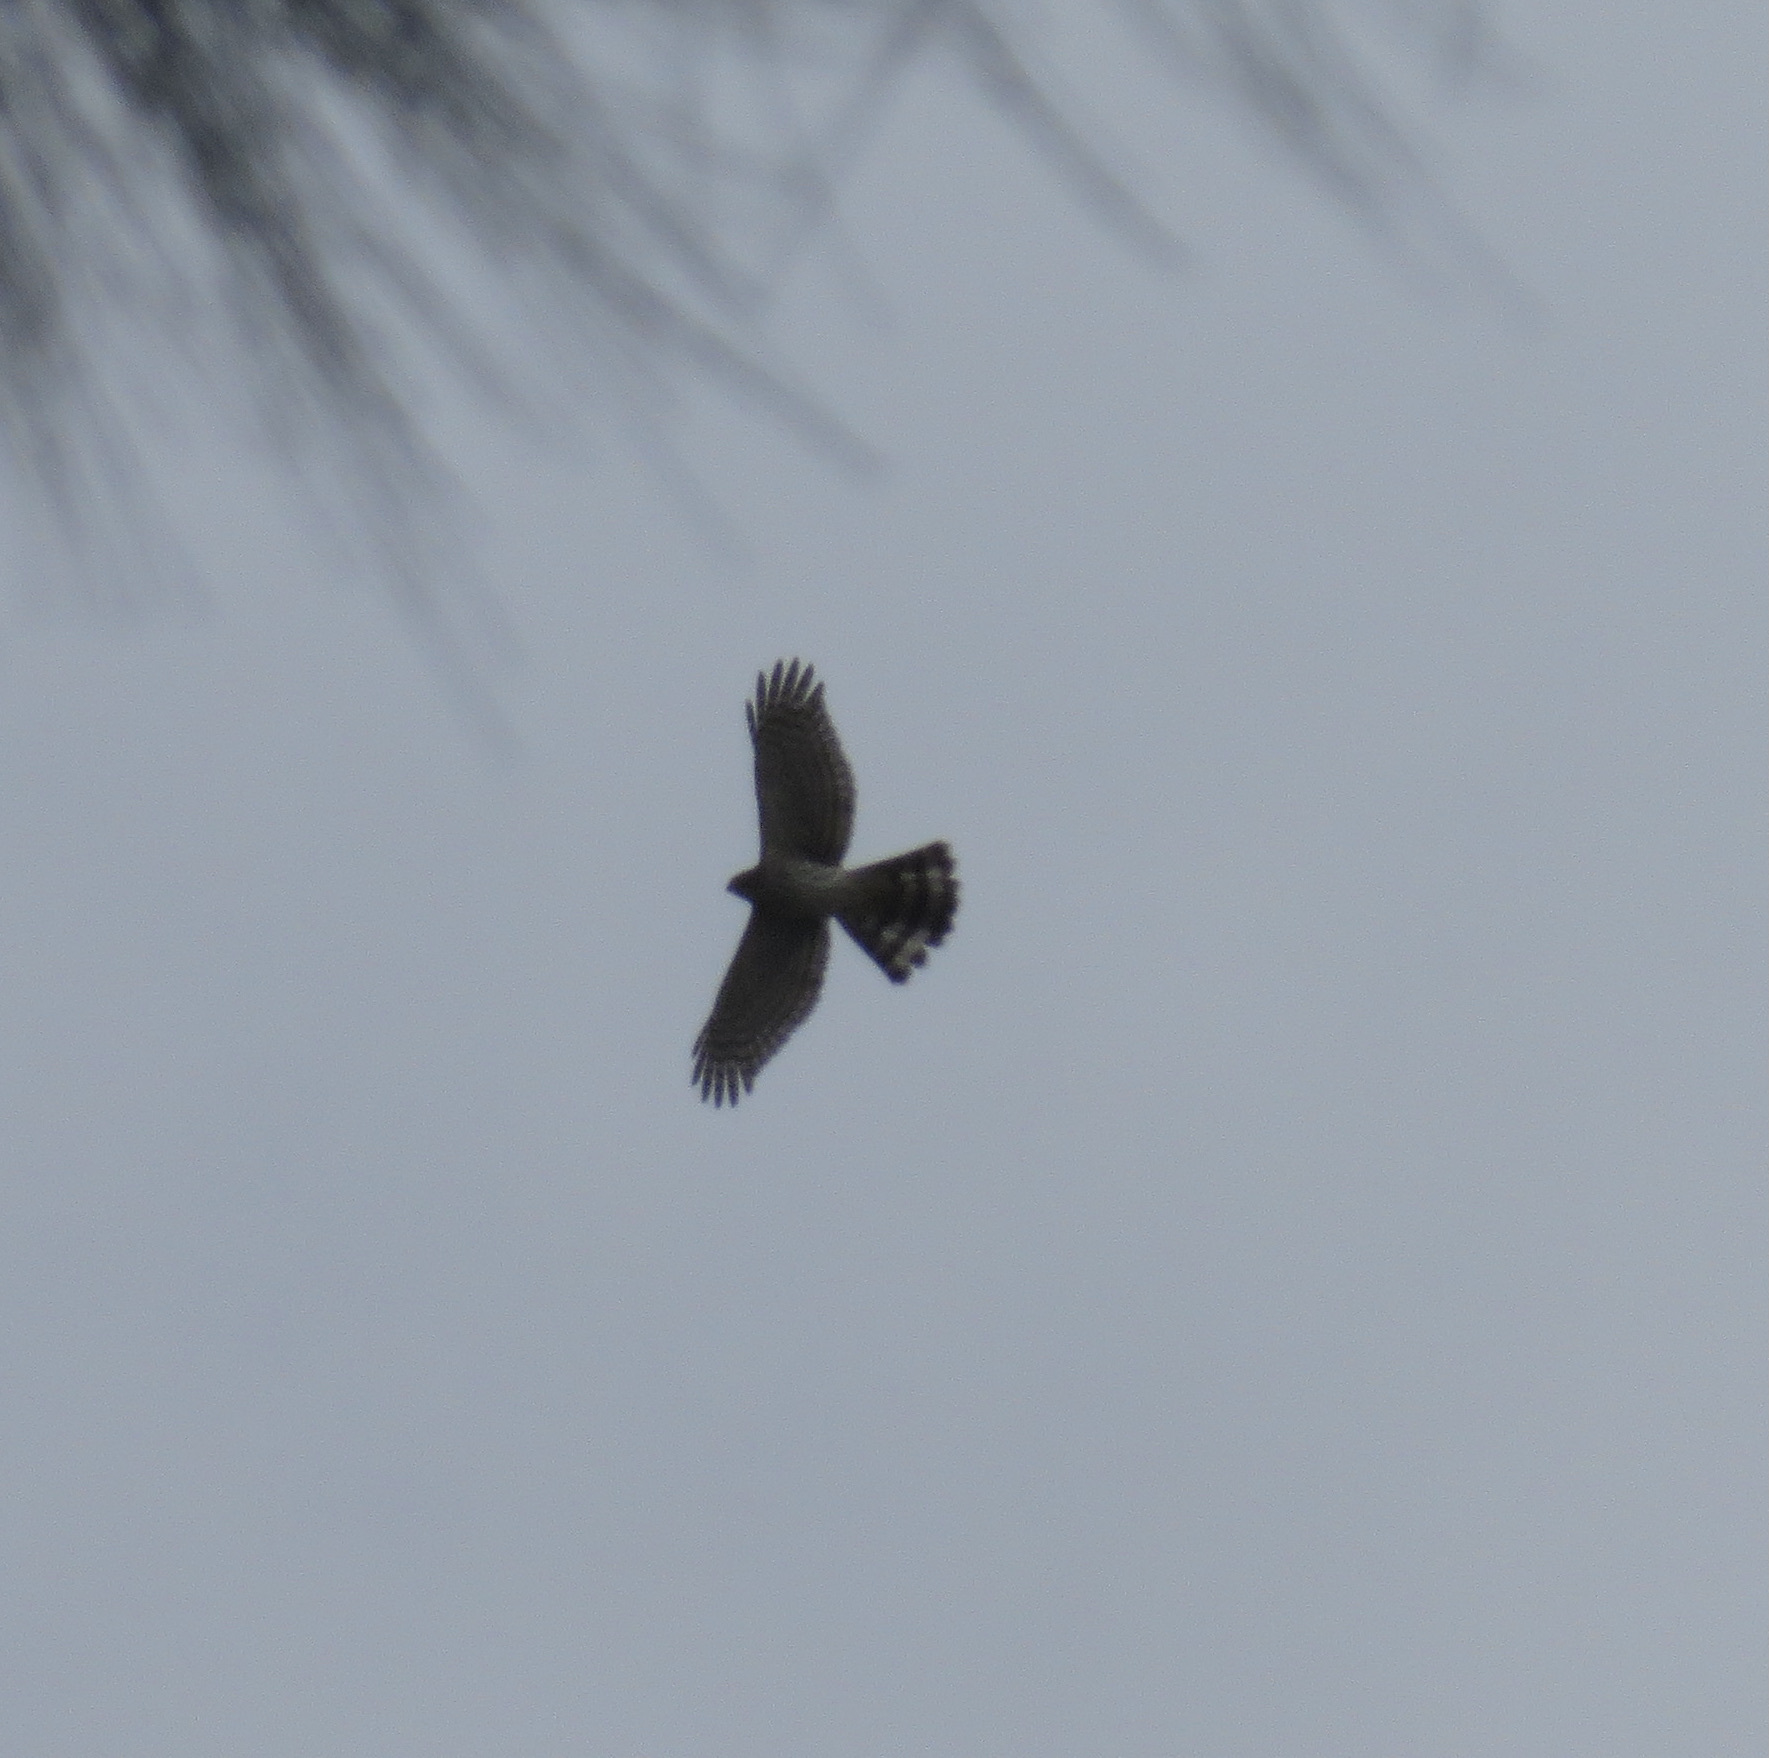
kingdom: Animalia
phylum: Chordata
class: Aves
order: Accipitriformes
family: Accipitridae
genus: Accipiter
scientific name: Accipiter cooperii
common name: Cooper's hawk
